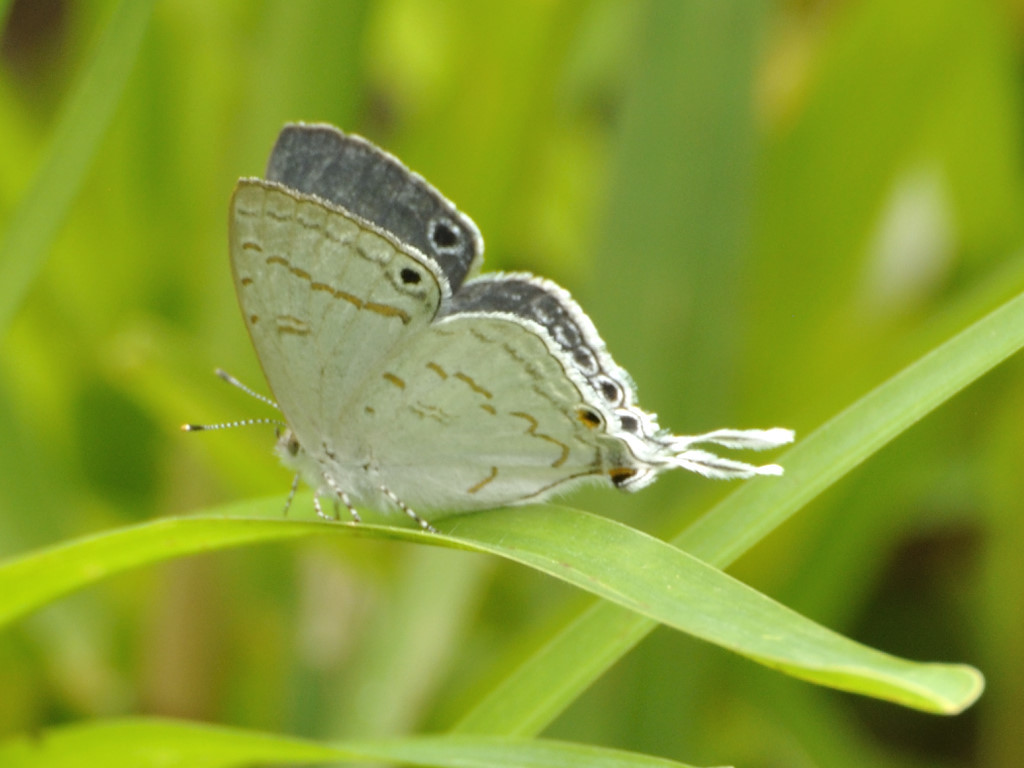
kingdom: Animalia
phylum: Arthropoda
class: Insecta
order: Lepidoptera
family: Lycaenidae
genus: Leptomyrina
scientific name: Leptomyrina hirundo
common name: Tailed black-eye
